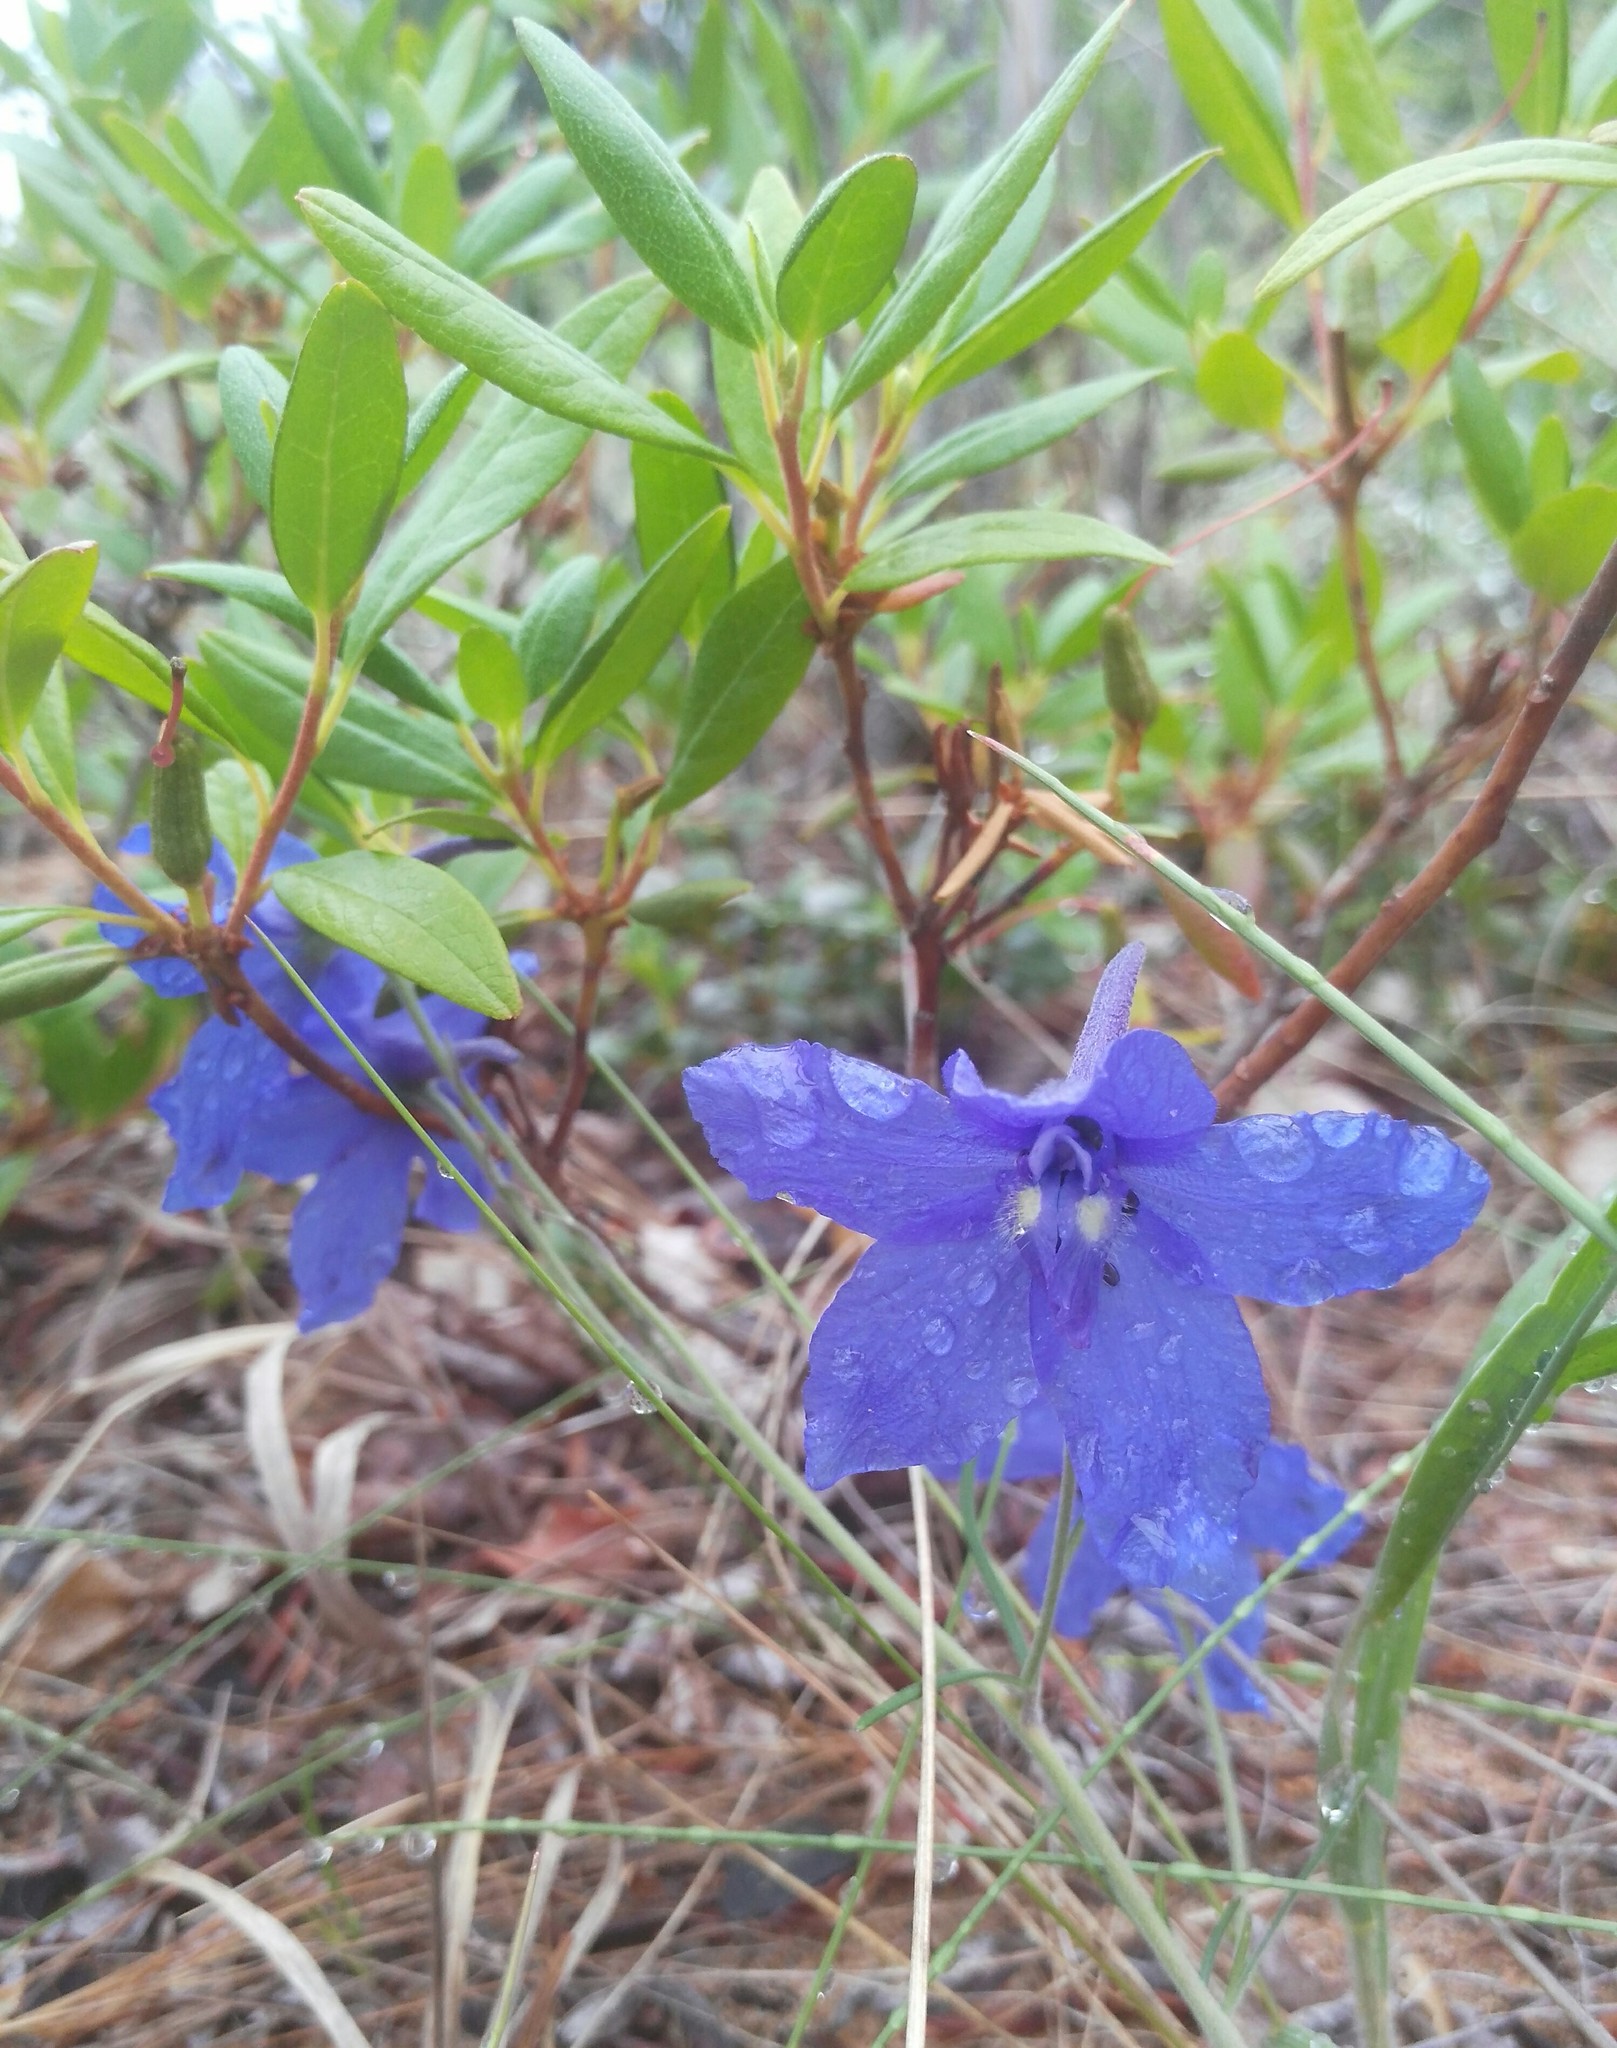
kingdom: Plantae
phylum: Tracheophyta
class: Magnoliopsida
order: Ranunculales
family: Ranunculaceae
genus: Delphinium
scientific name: Delphinium grandiflorum
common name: Siberian larkspur
